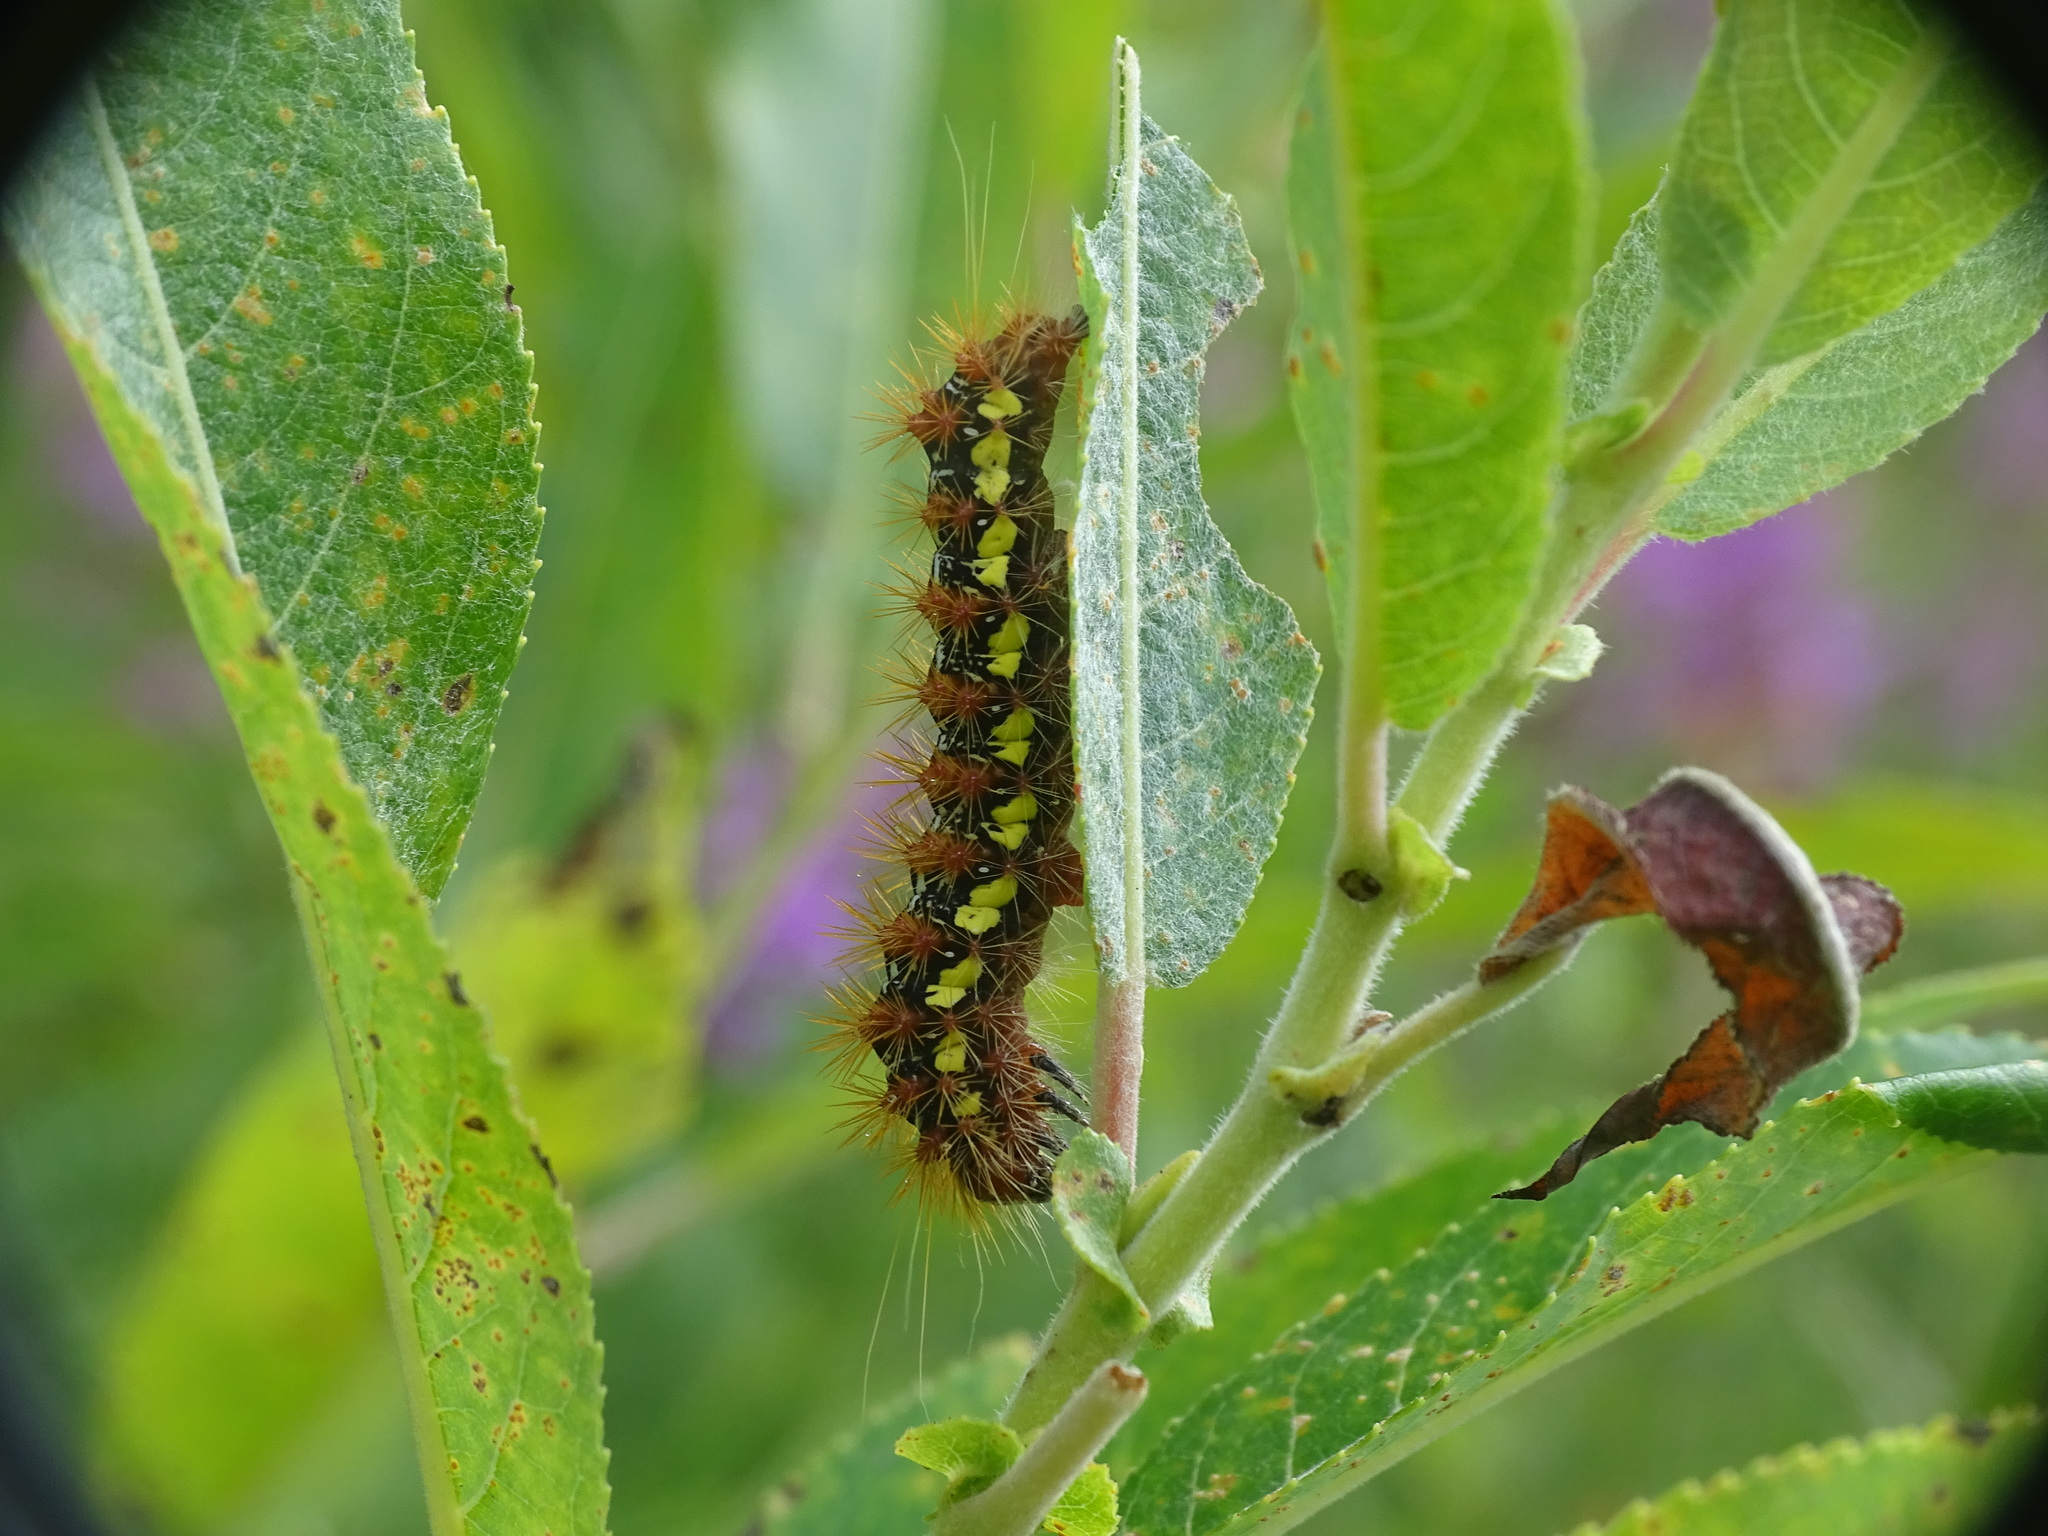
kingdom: Animalia
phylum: Arthropoda
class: Insecta
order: Lepidoptera
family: Noctuidae
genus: Acronicta
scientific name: Acronicta oblinita
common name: Smeared dagger
